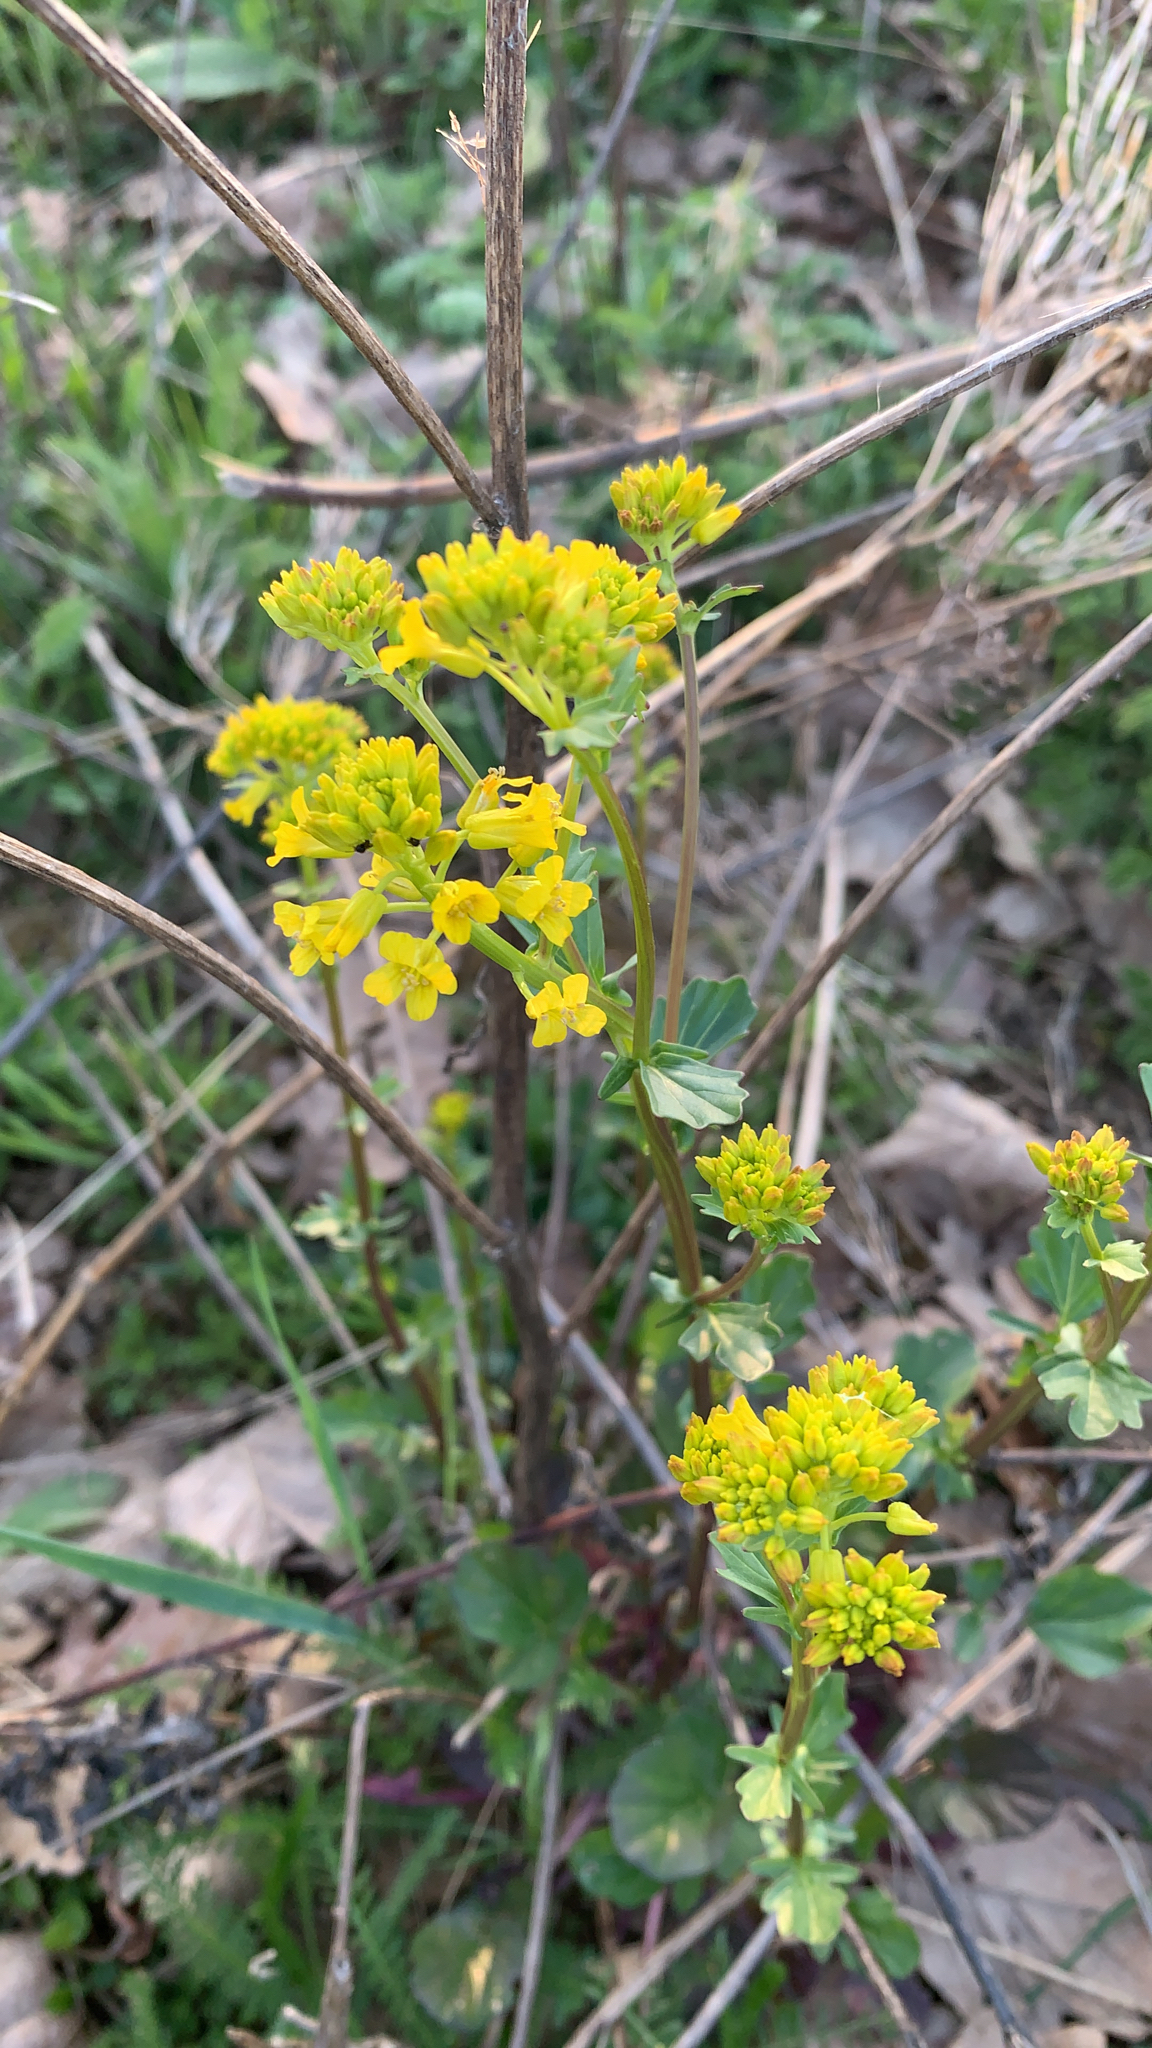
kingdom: Plantae
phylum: Tracheophyta
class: Magnoliopsida
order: Brassicales
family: Brassicaceae
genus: Barbarea
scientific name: Barbarea vulgaris
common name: Cressy-greens
